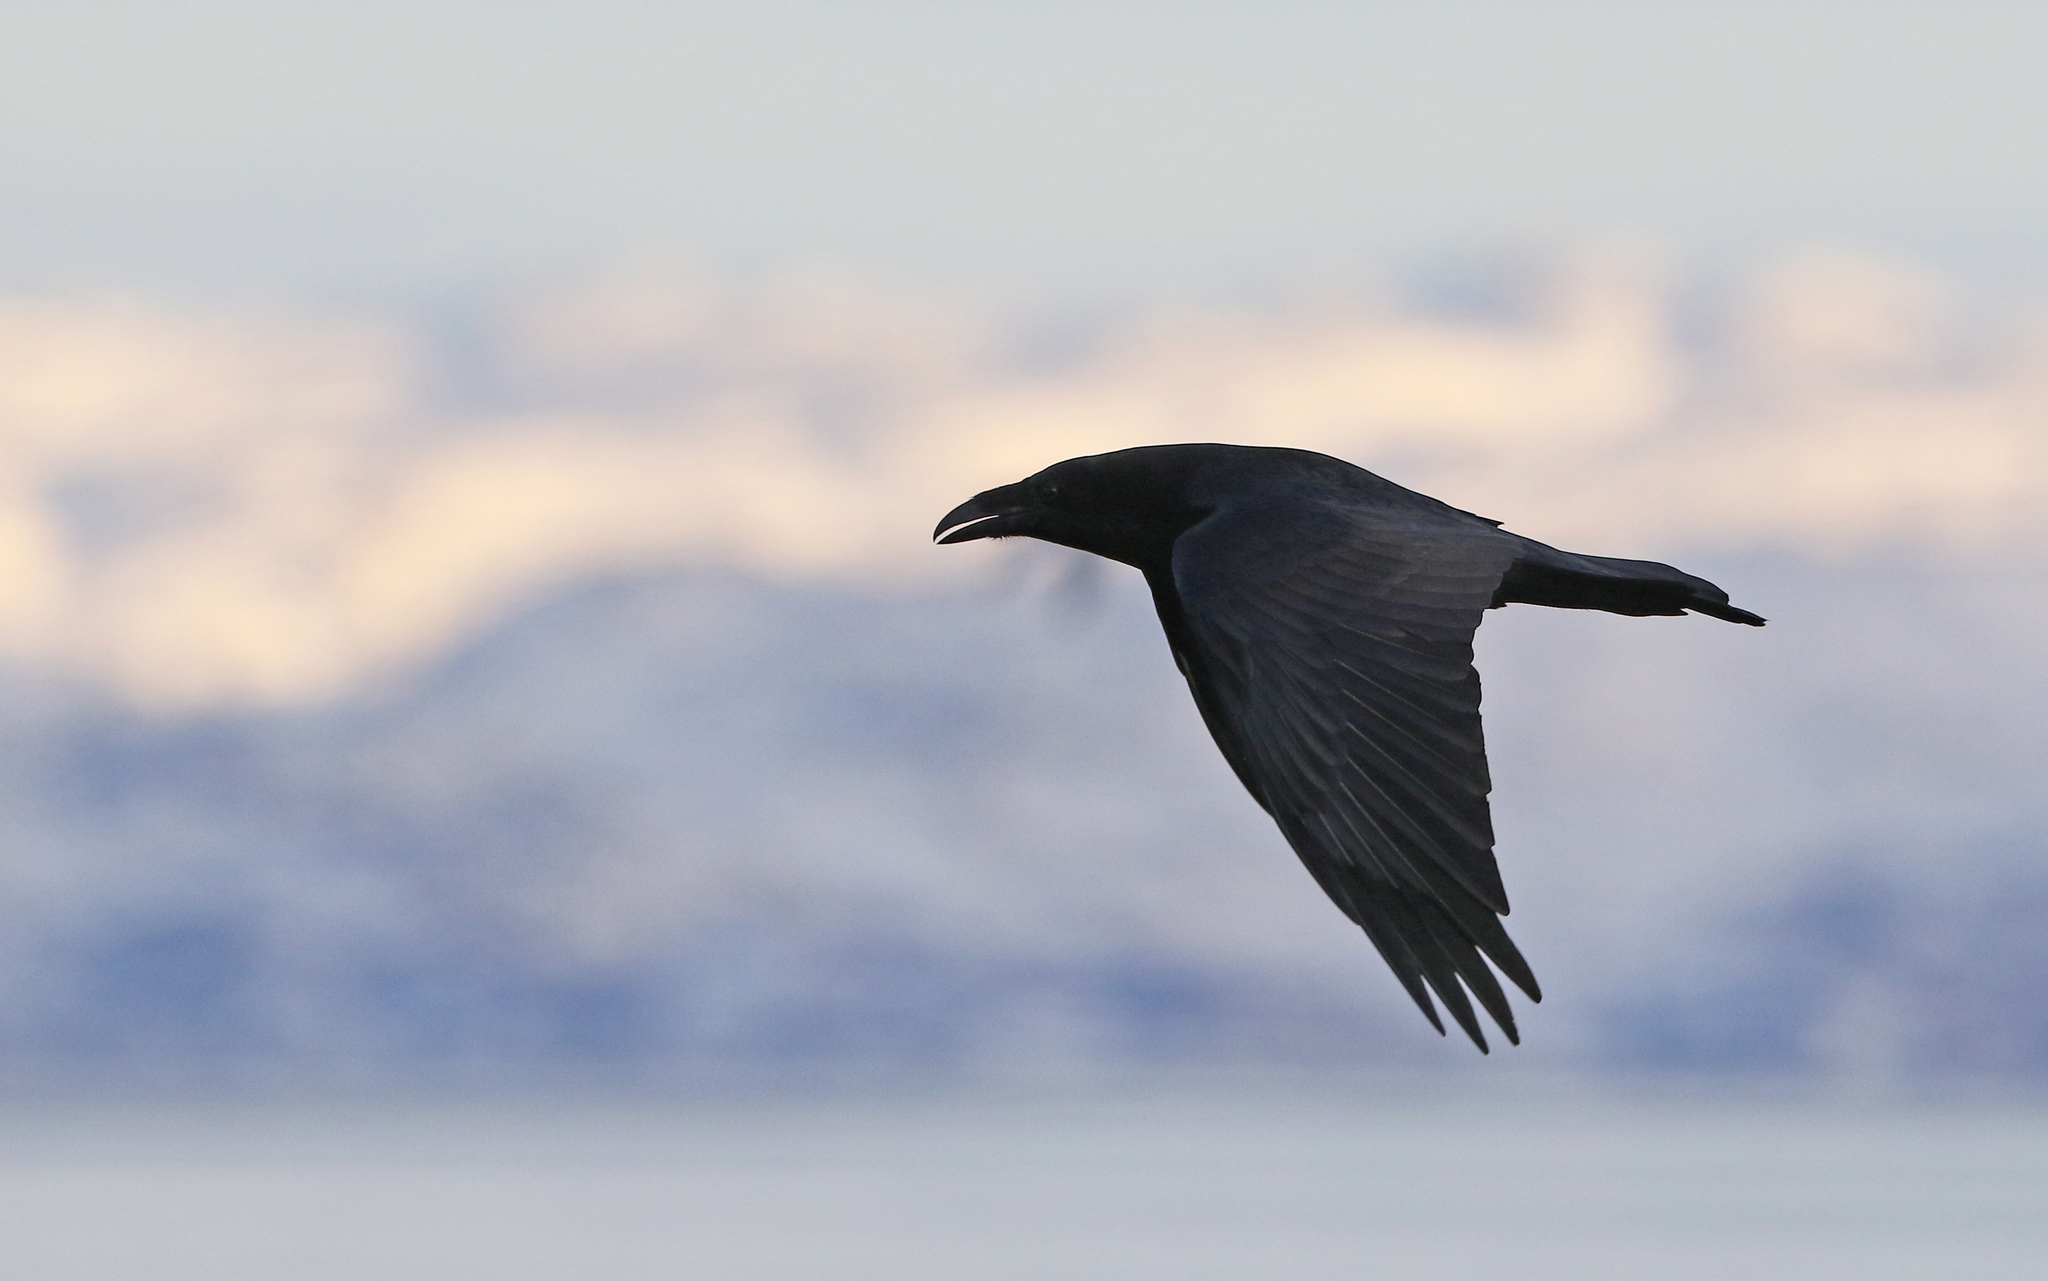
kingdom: Animalia
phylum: Chordata
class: Aves
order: Passeriformes
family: Corvidae
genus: Corvus
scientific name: Corvus corax
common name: Common raven
